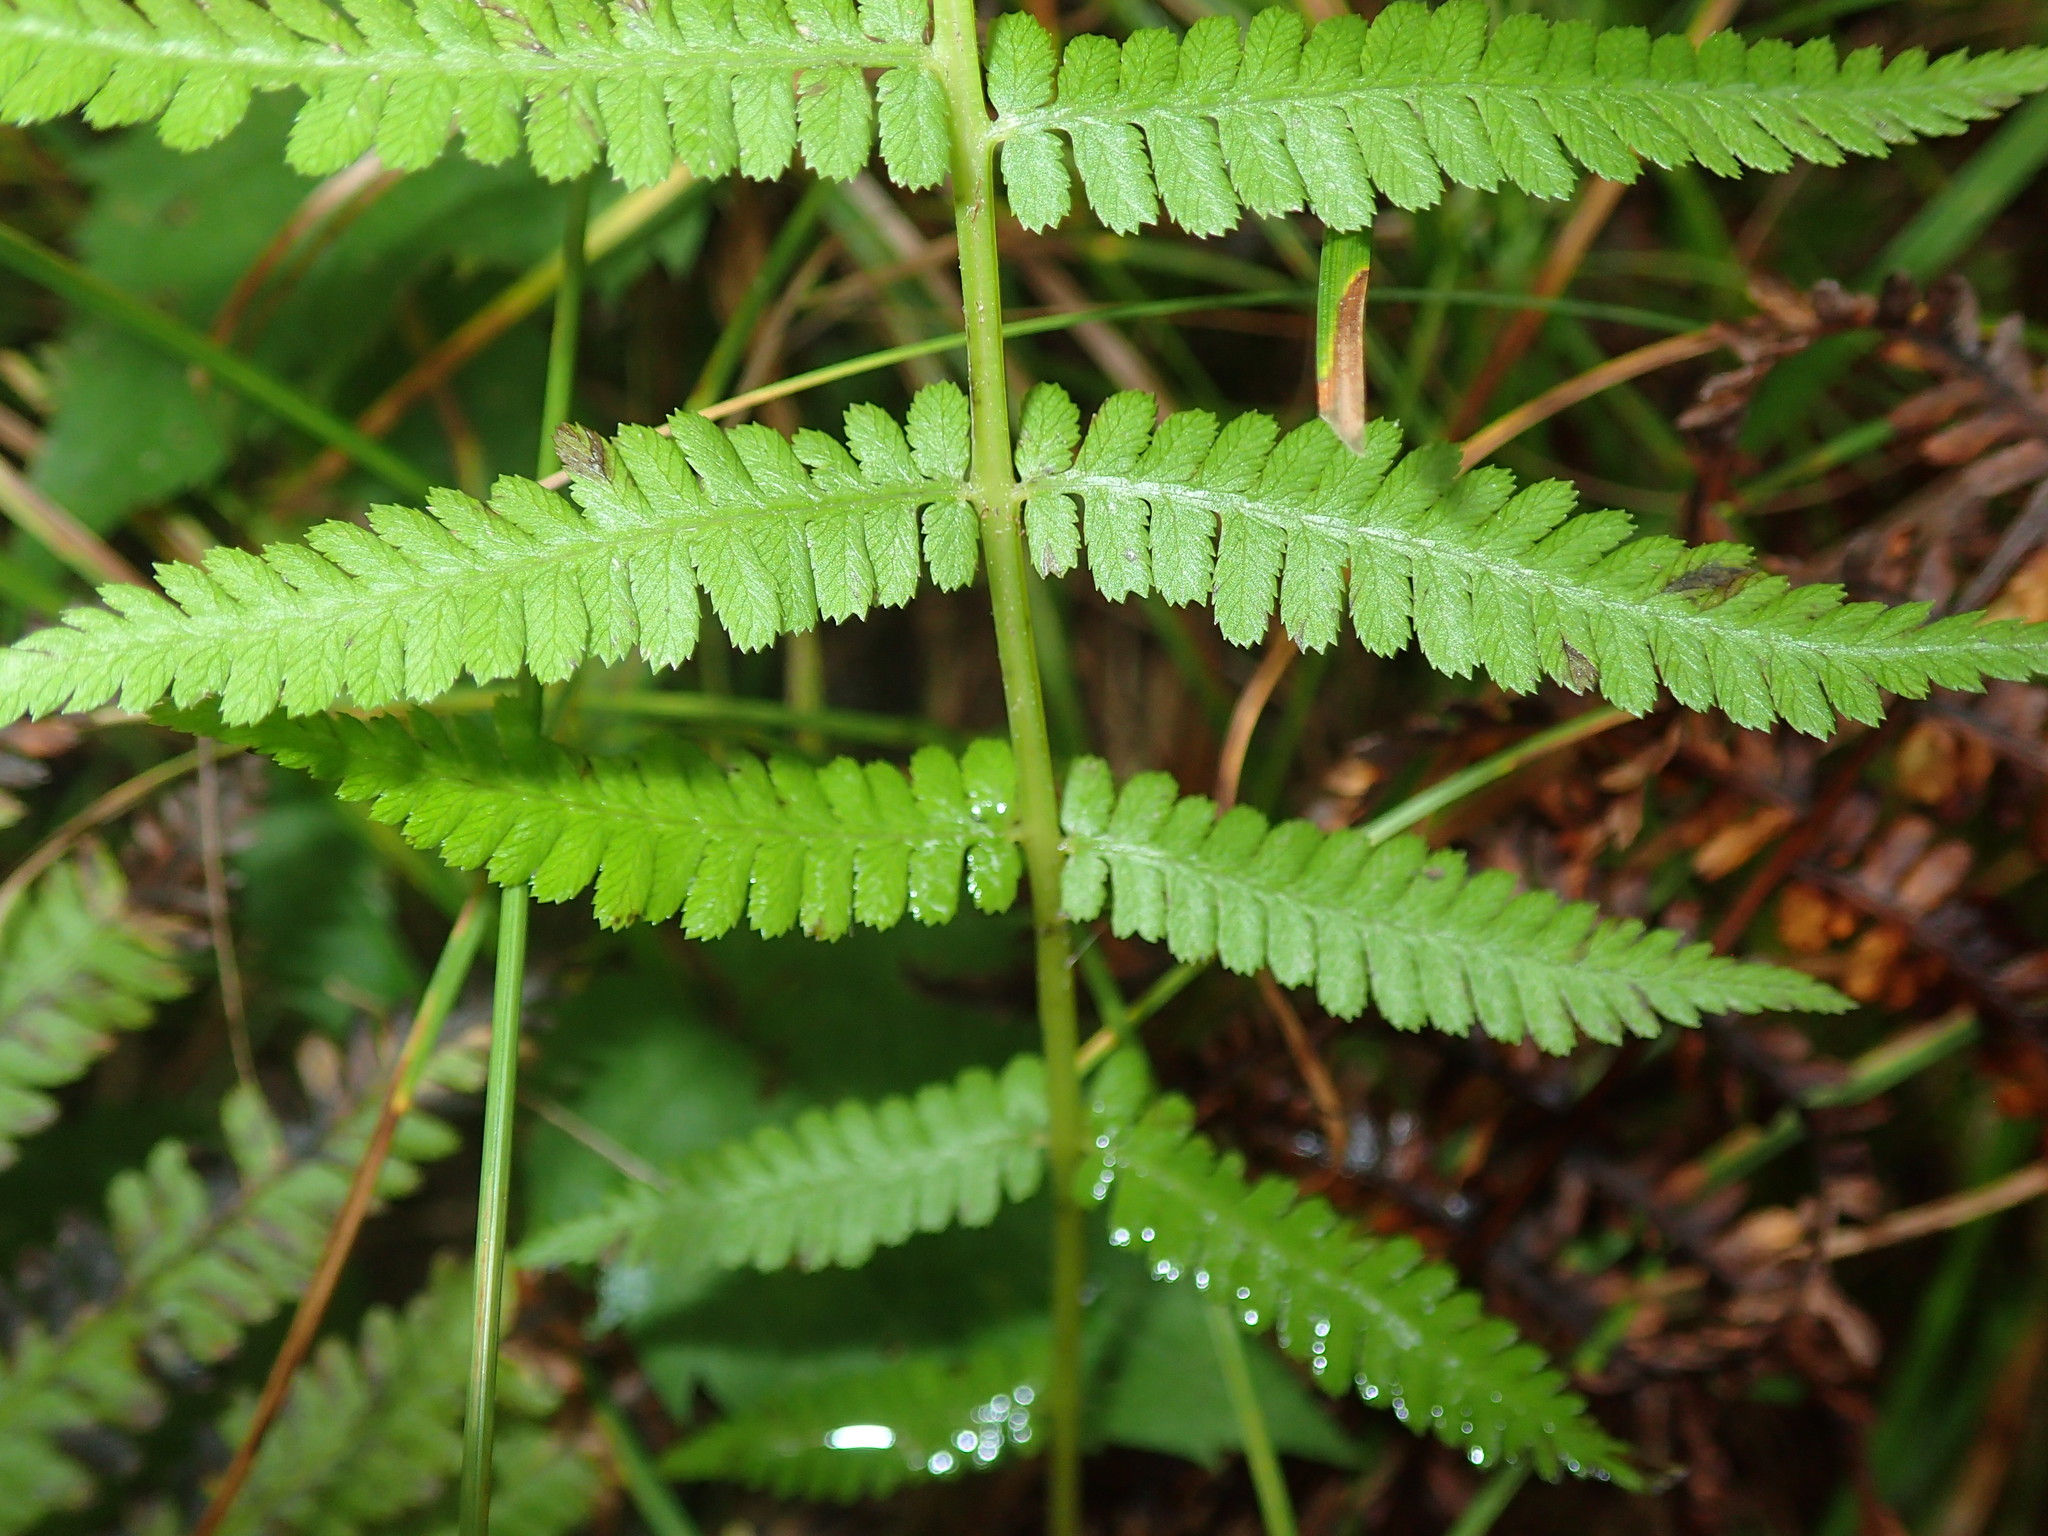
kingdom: Plantae
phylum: Tracheophyta
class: Polypodiopsida
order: Polypodiales
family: Athyriaceae
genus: Athyrium
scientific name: Athyrium angustum
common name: Northern lady fern
